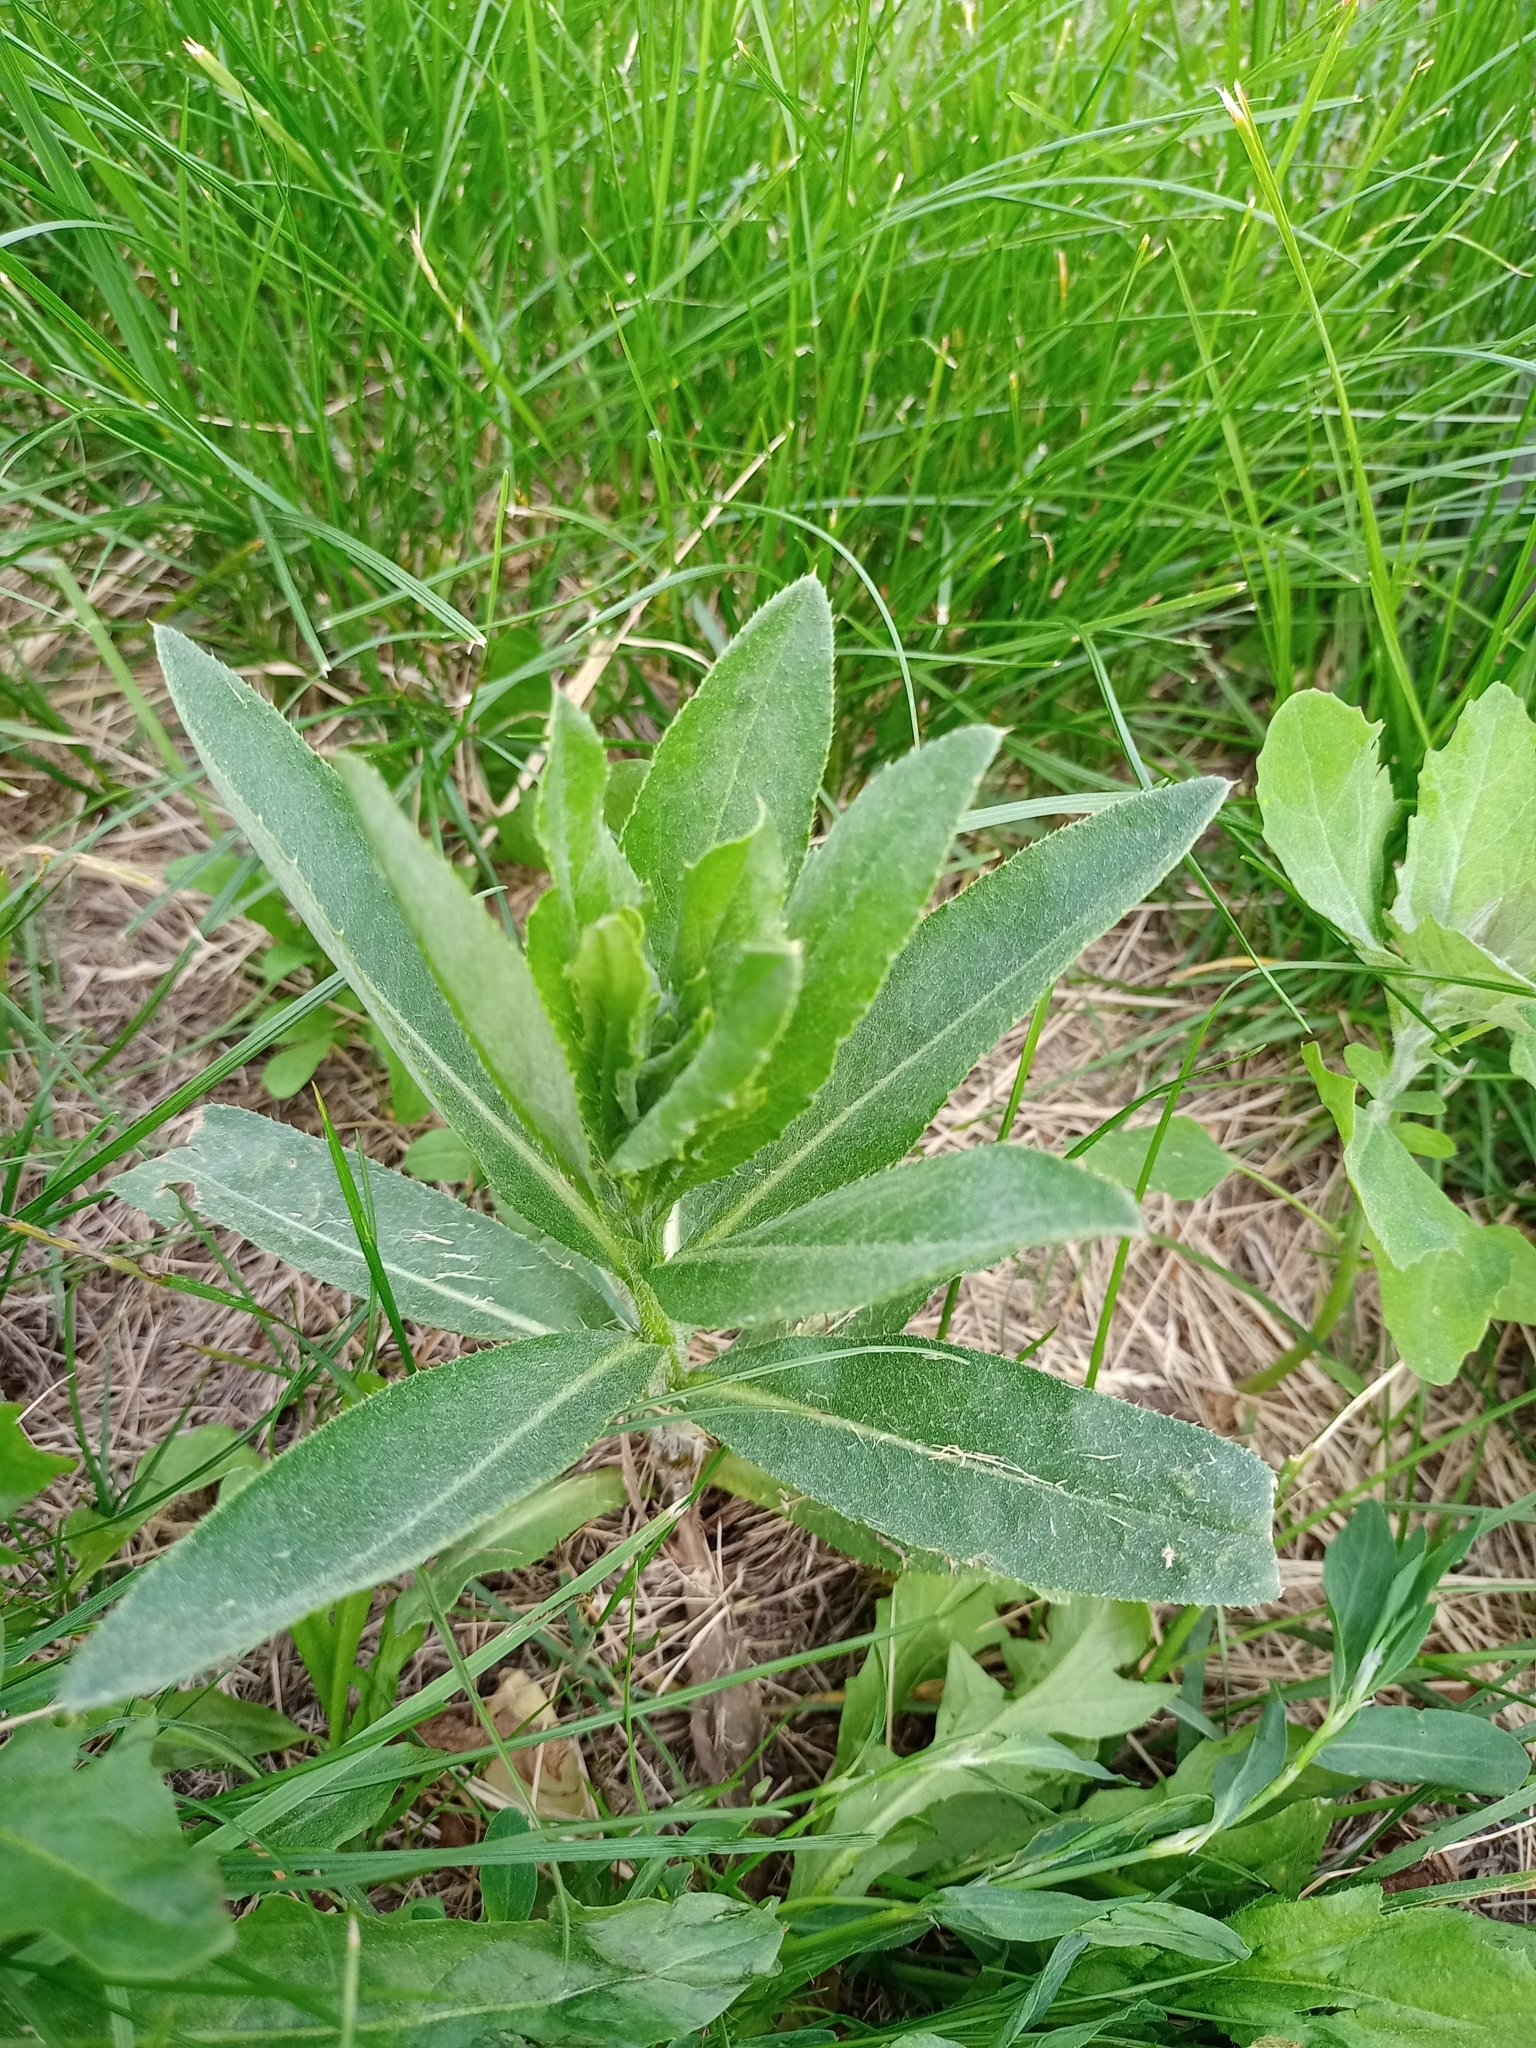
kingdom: Plantae
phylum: Tracheophyta
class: Magnoliopsida
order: Asterales
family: Asteraceae
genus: Cirsium
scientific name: Cirsium arvense
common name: Creeping thistle
